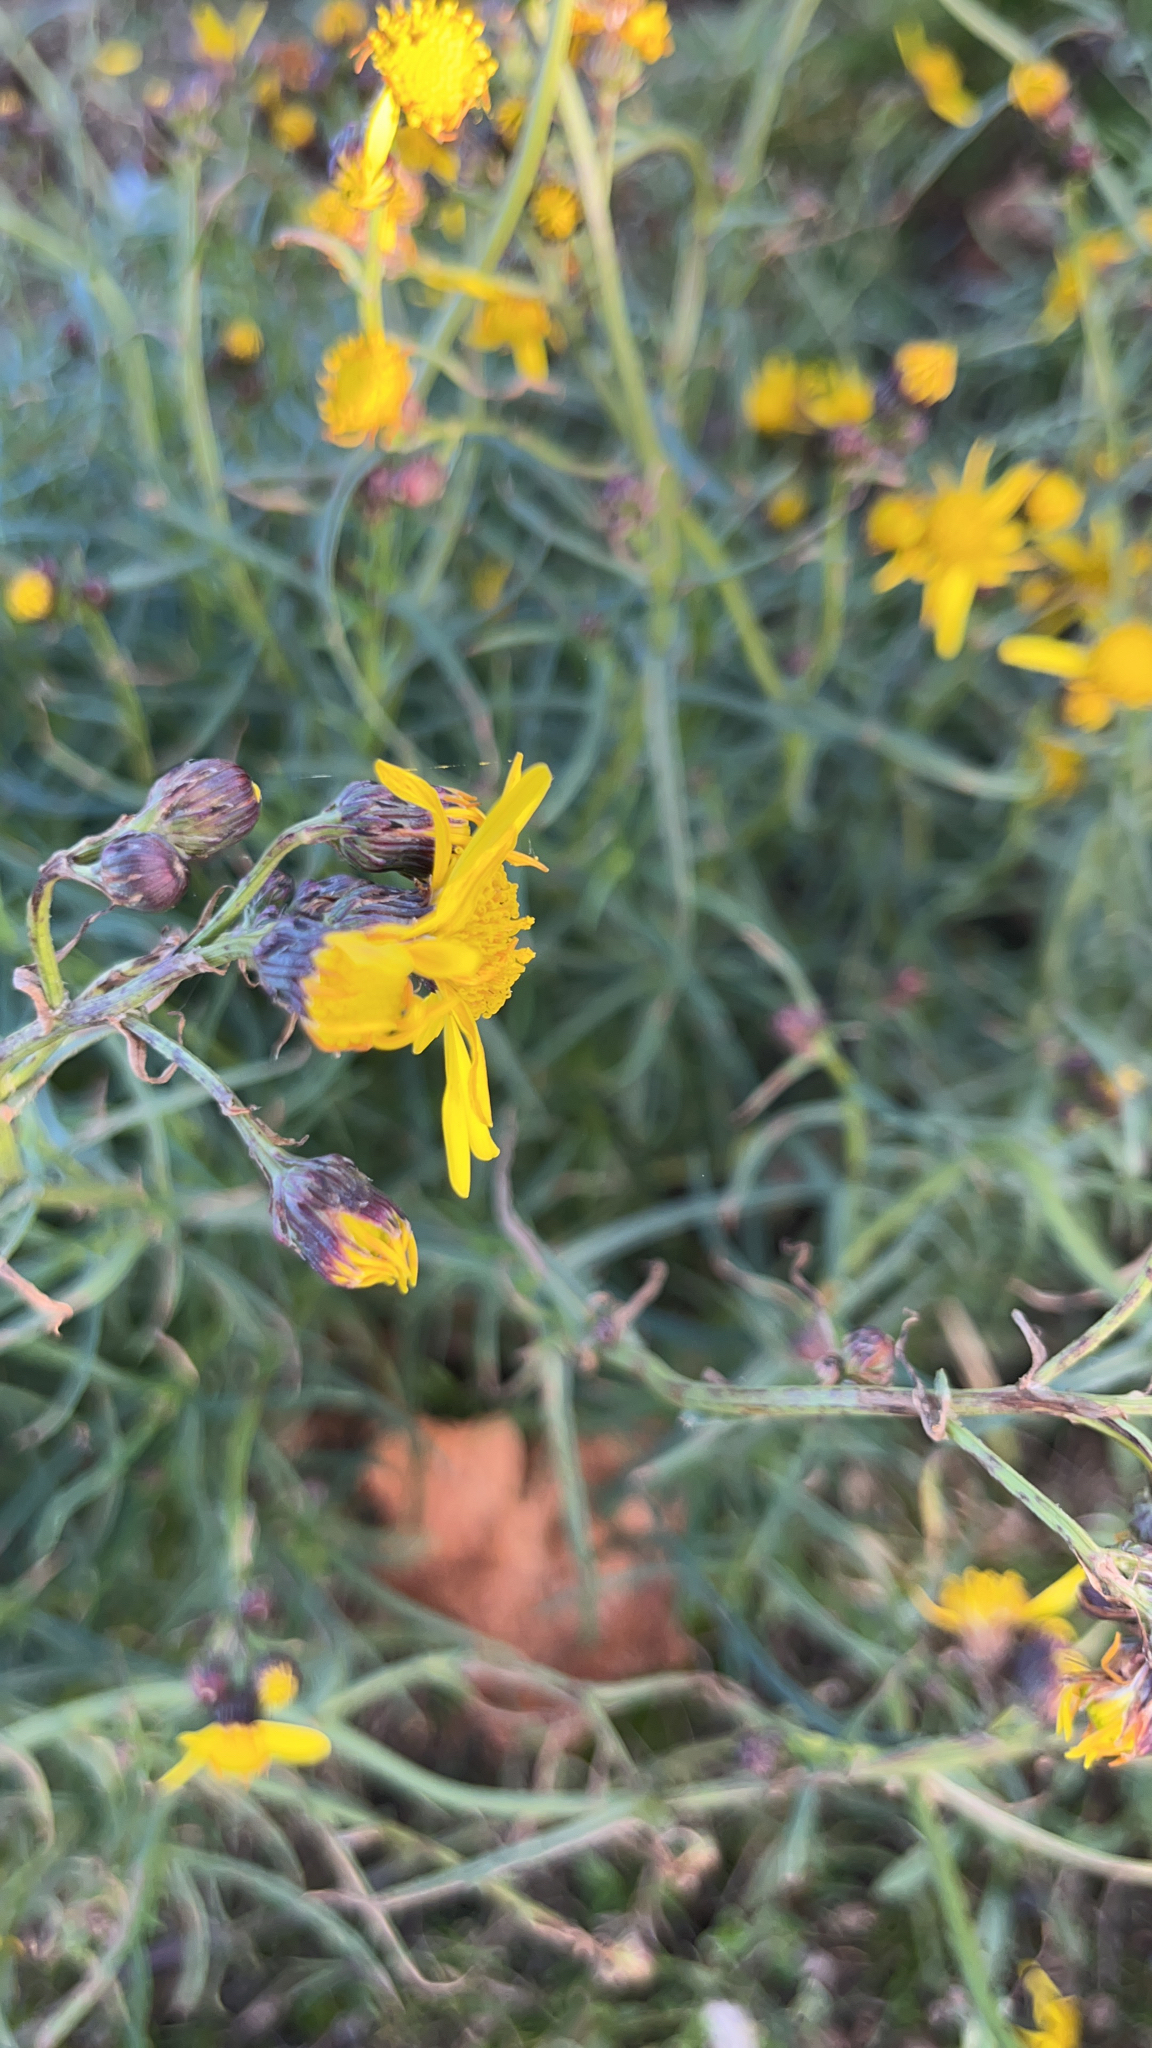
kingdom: Plantae
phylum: Tracheophyta
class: Magnoliopsida
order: Asterales
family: Asteraceae
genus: Senecio
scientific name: Senecio inaequidens
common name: Narrow-leaved ragwort
